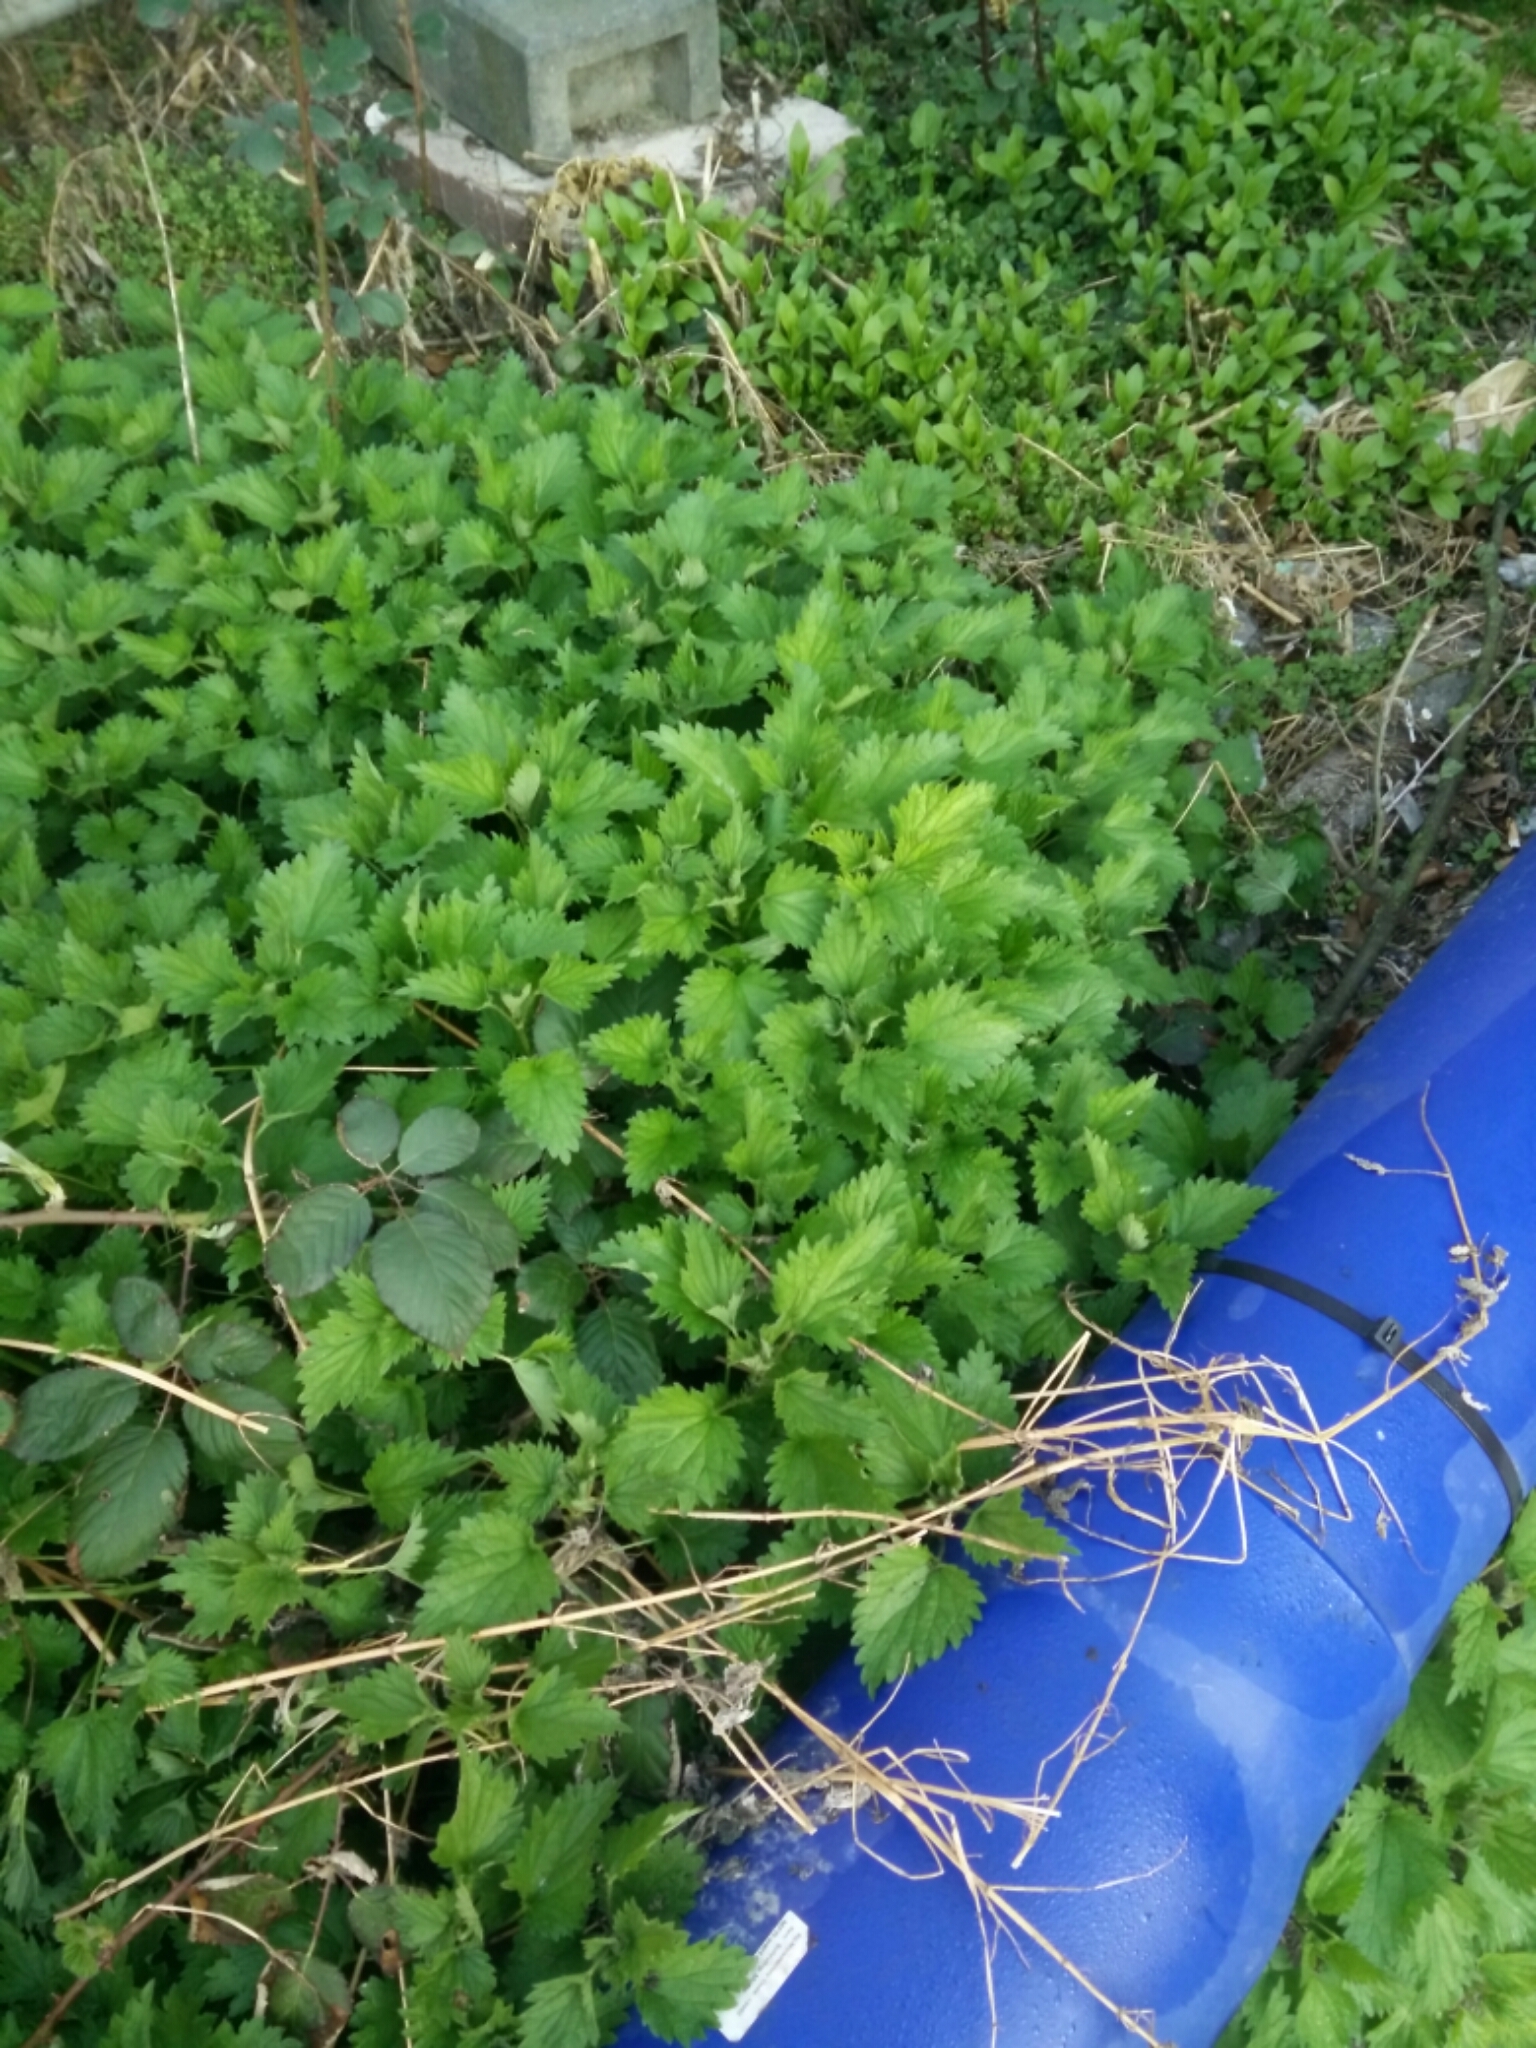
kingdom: Plantae
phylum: Tracheophyta
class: Magnoliopsida
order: Rosales
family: Urticaceae
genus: Urtica
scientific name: Urtica dioica
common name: Common nettle
